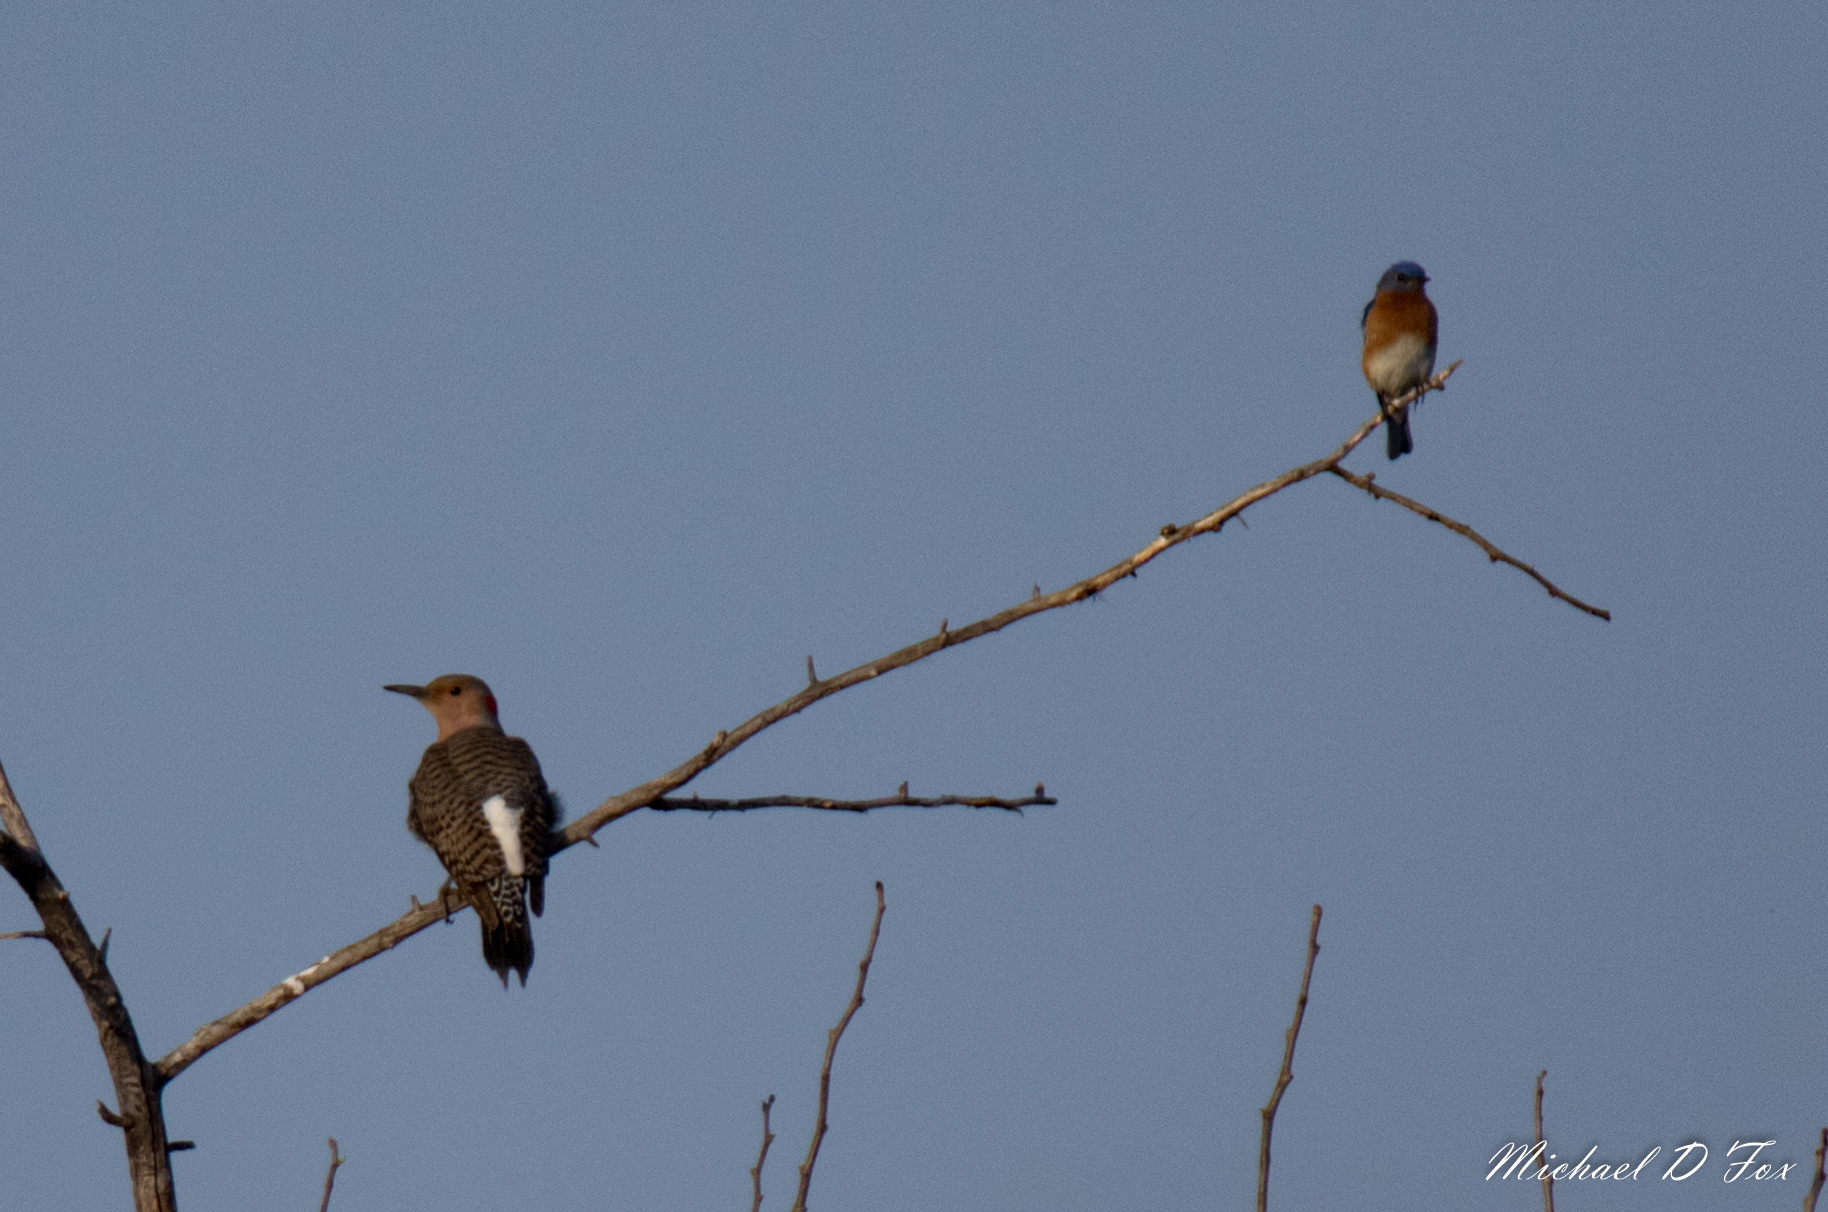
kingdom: Animalia
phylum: Chordata
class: Aves
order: Piciformes
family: Picidae
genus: Colaptes
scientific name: Colaptes auratus
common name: Northern flicker
